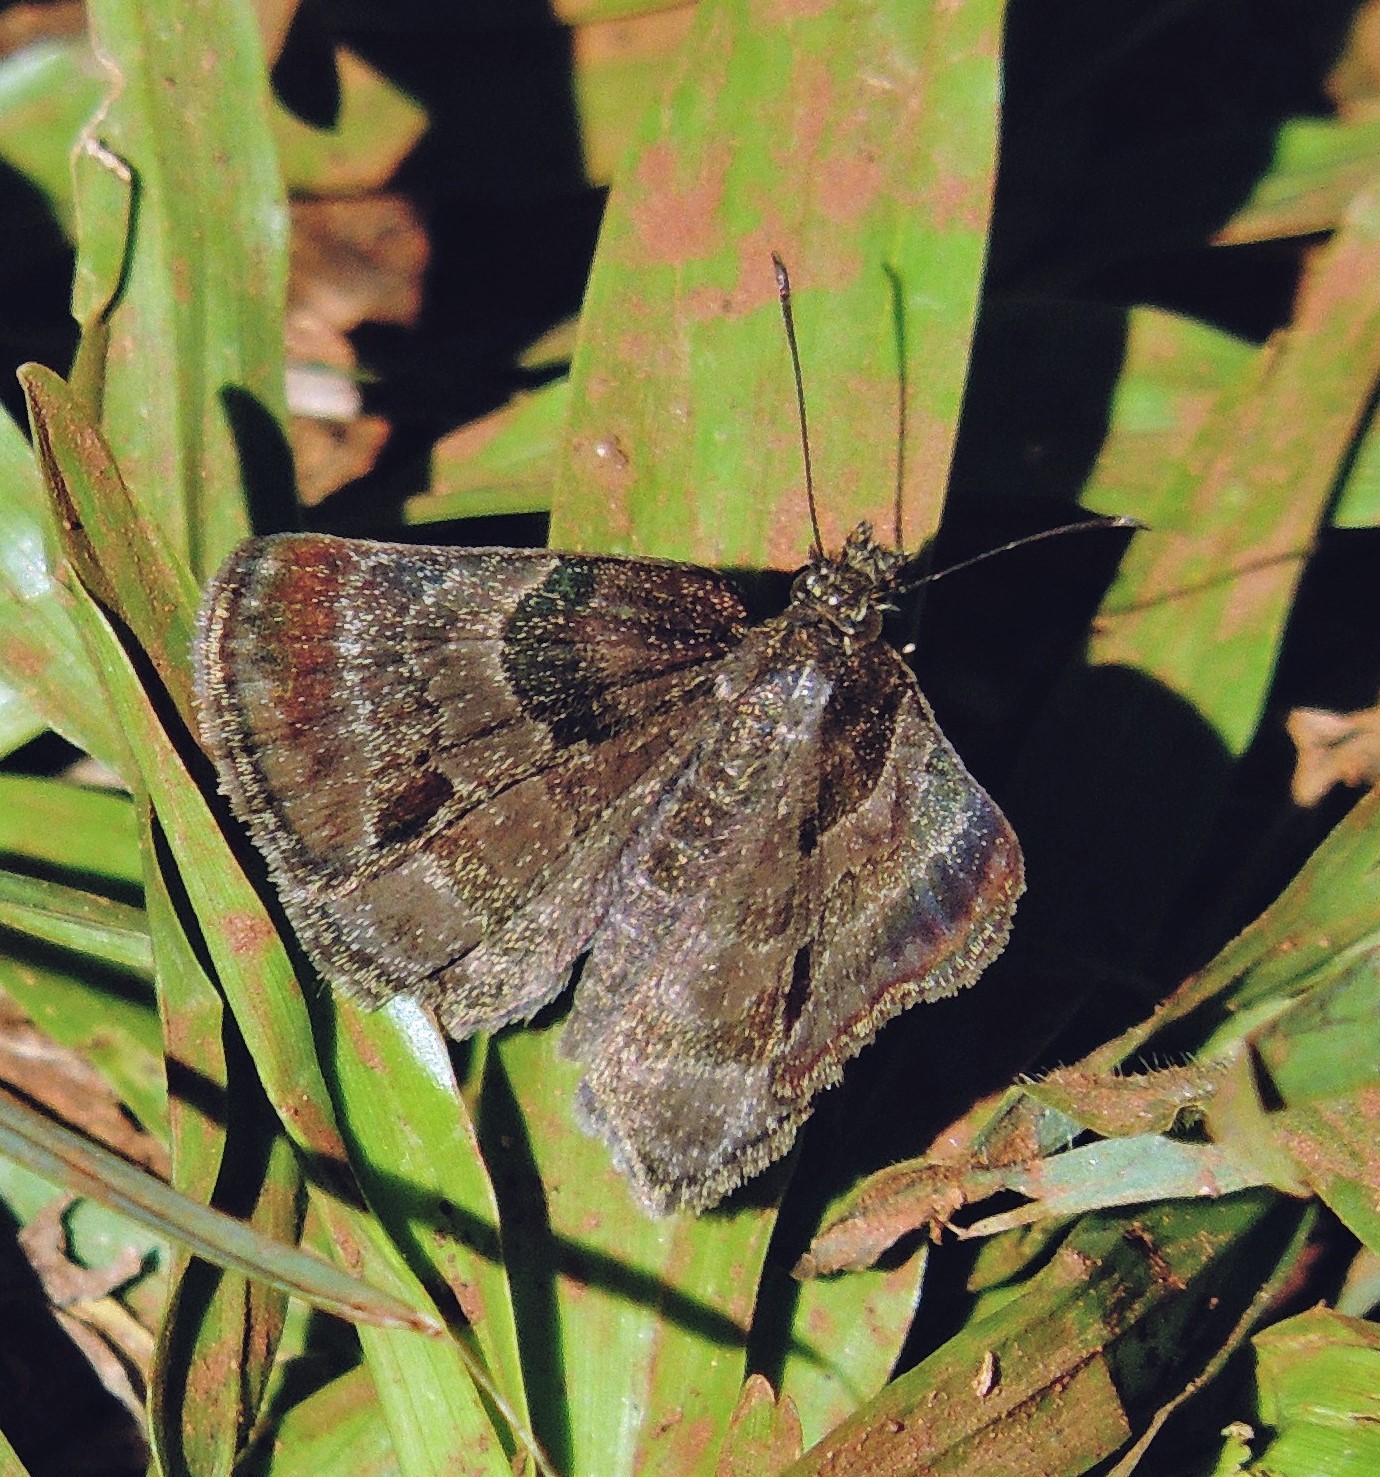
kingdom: Animalia
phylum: Arthropoda
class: Insecta
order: Lepidoptera
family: Hesperiidae
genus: Trina
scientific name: Trina geometrina
